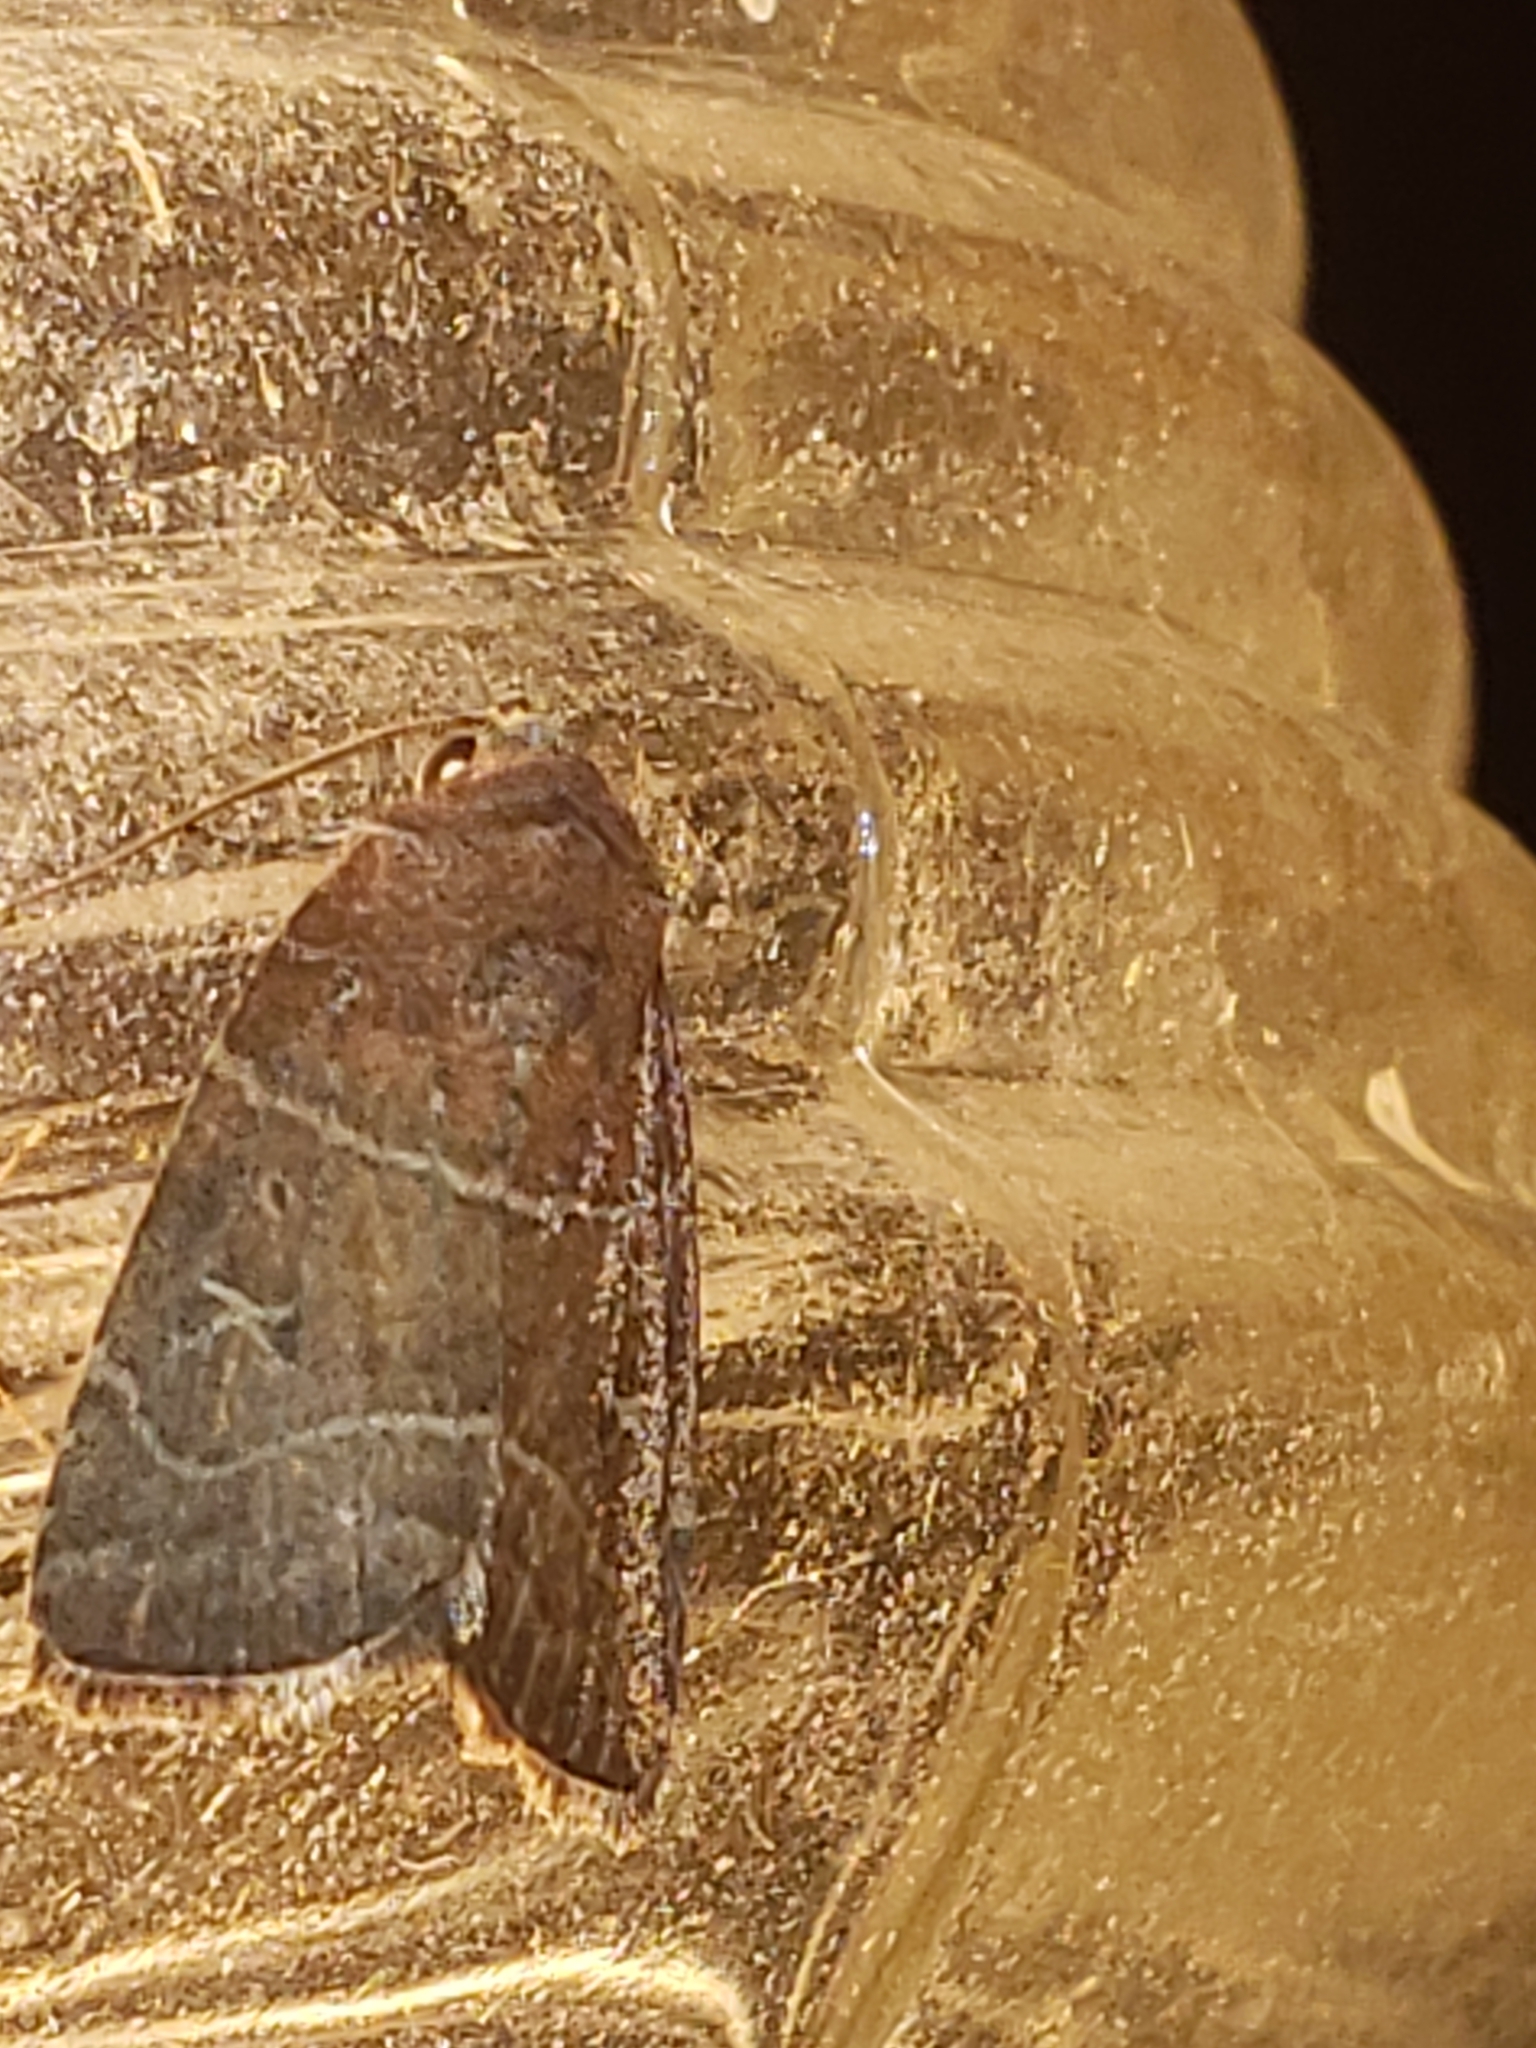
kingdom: Animalia
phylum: Arthropoda
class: Insecta
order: Lepidoptera
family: Noctuidae
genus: Elaphria
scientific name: Elaphria grata
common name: Grateful midget moth
